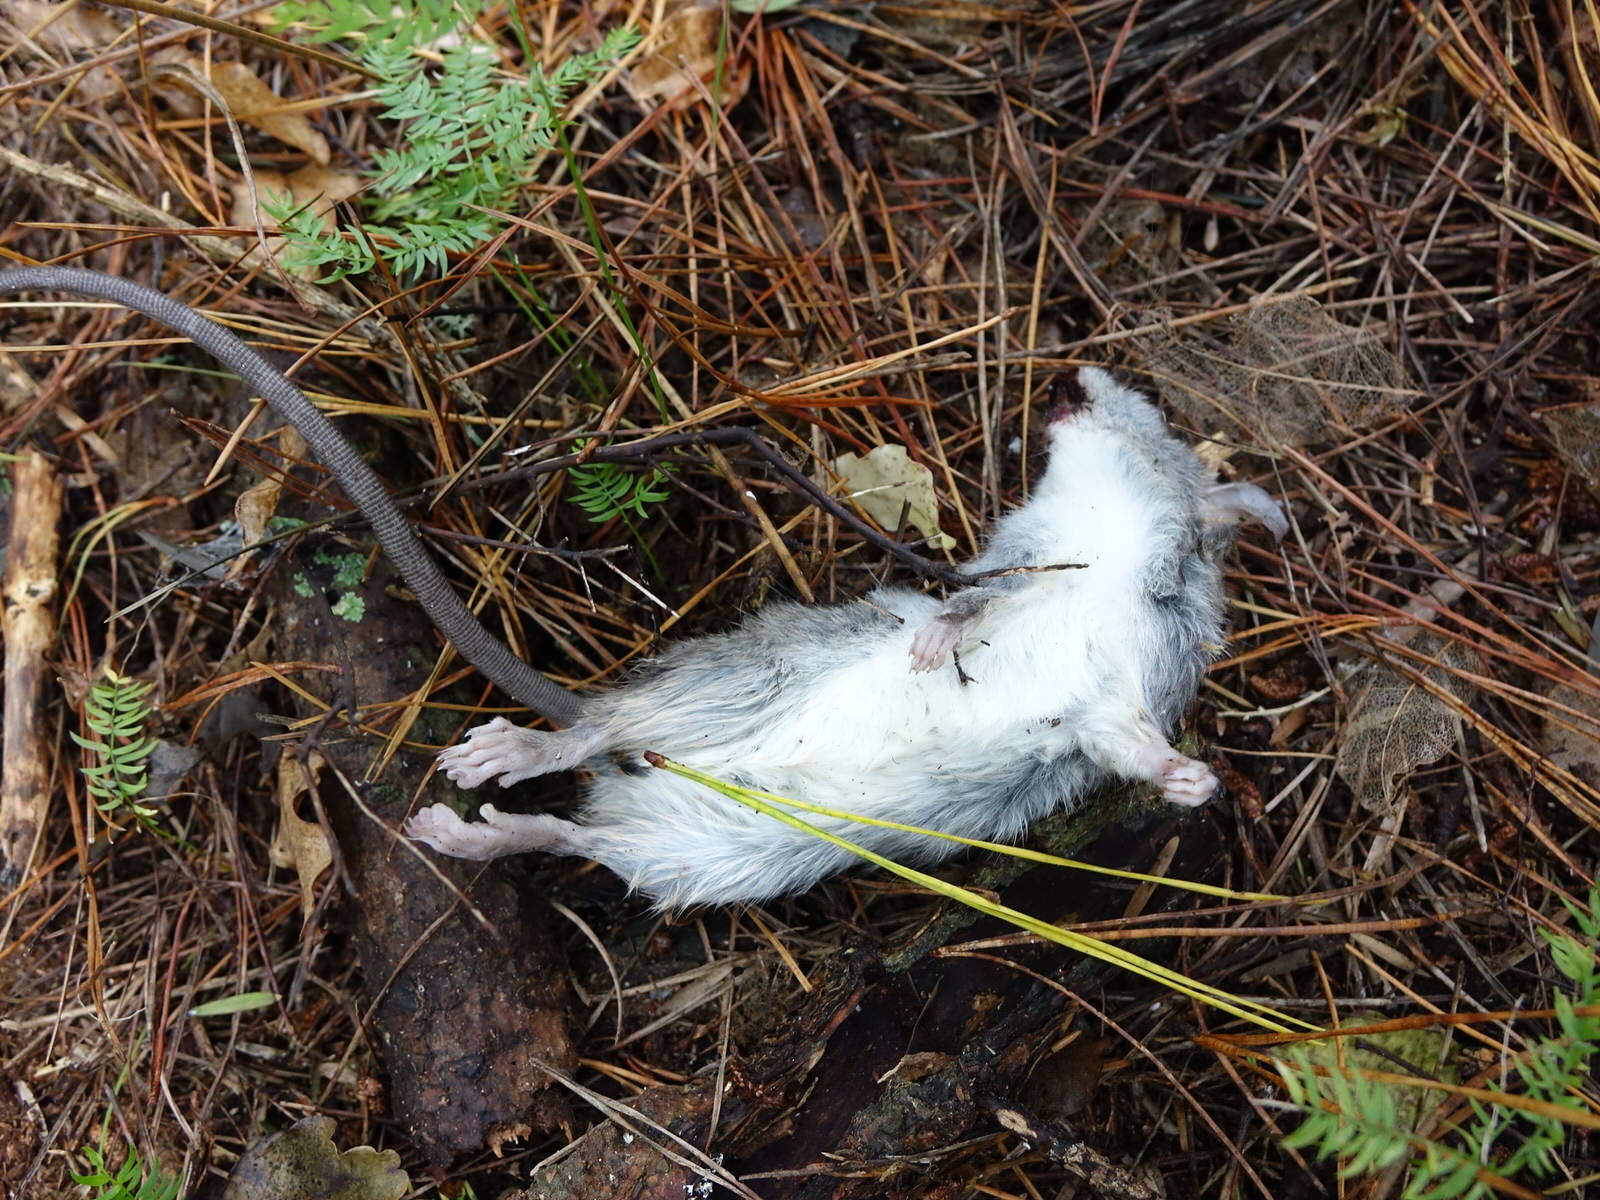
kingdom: Animalia
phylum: Chordata
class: Mammalia
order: Rodentia
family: Muridae
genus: Rattus
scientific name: Rattus rattus
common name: Black rat
